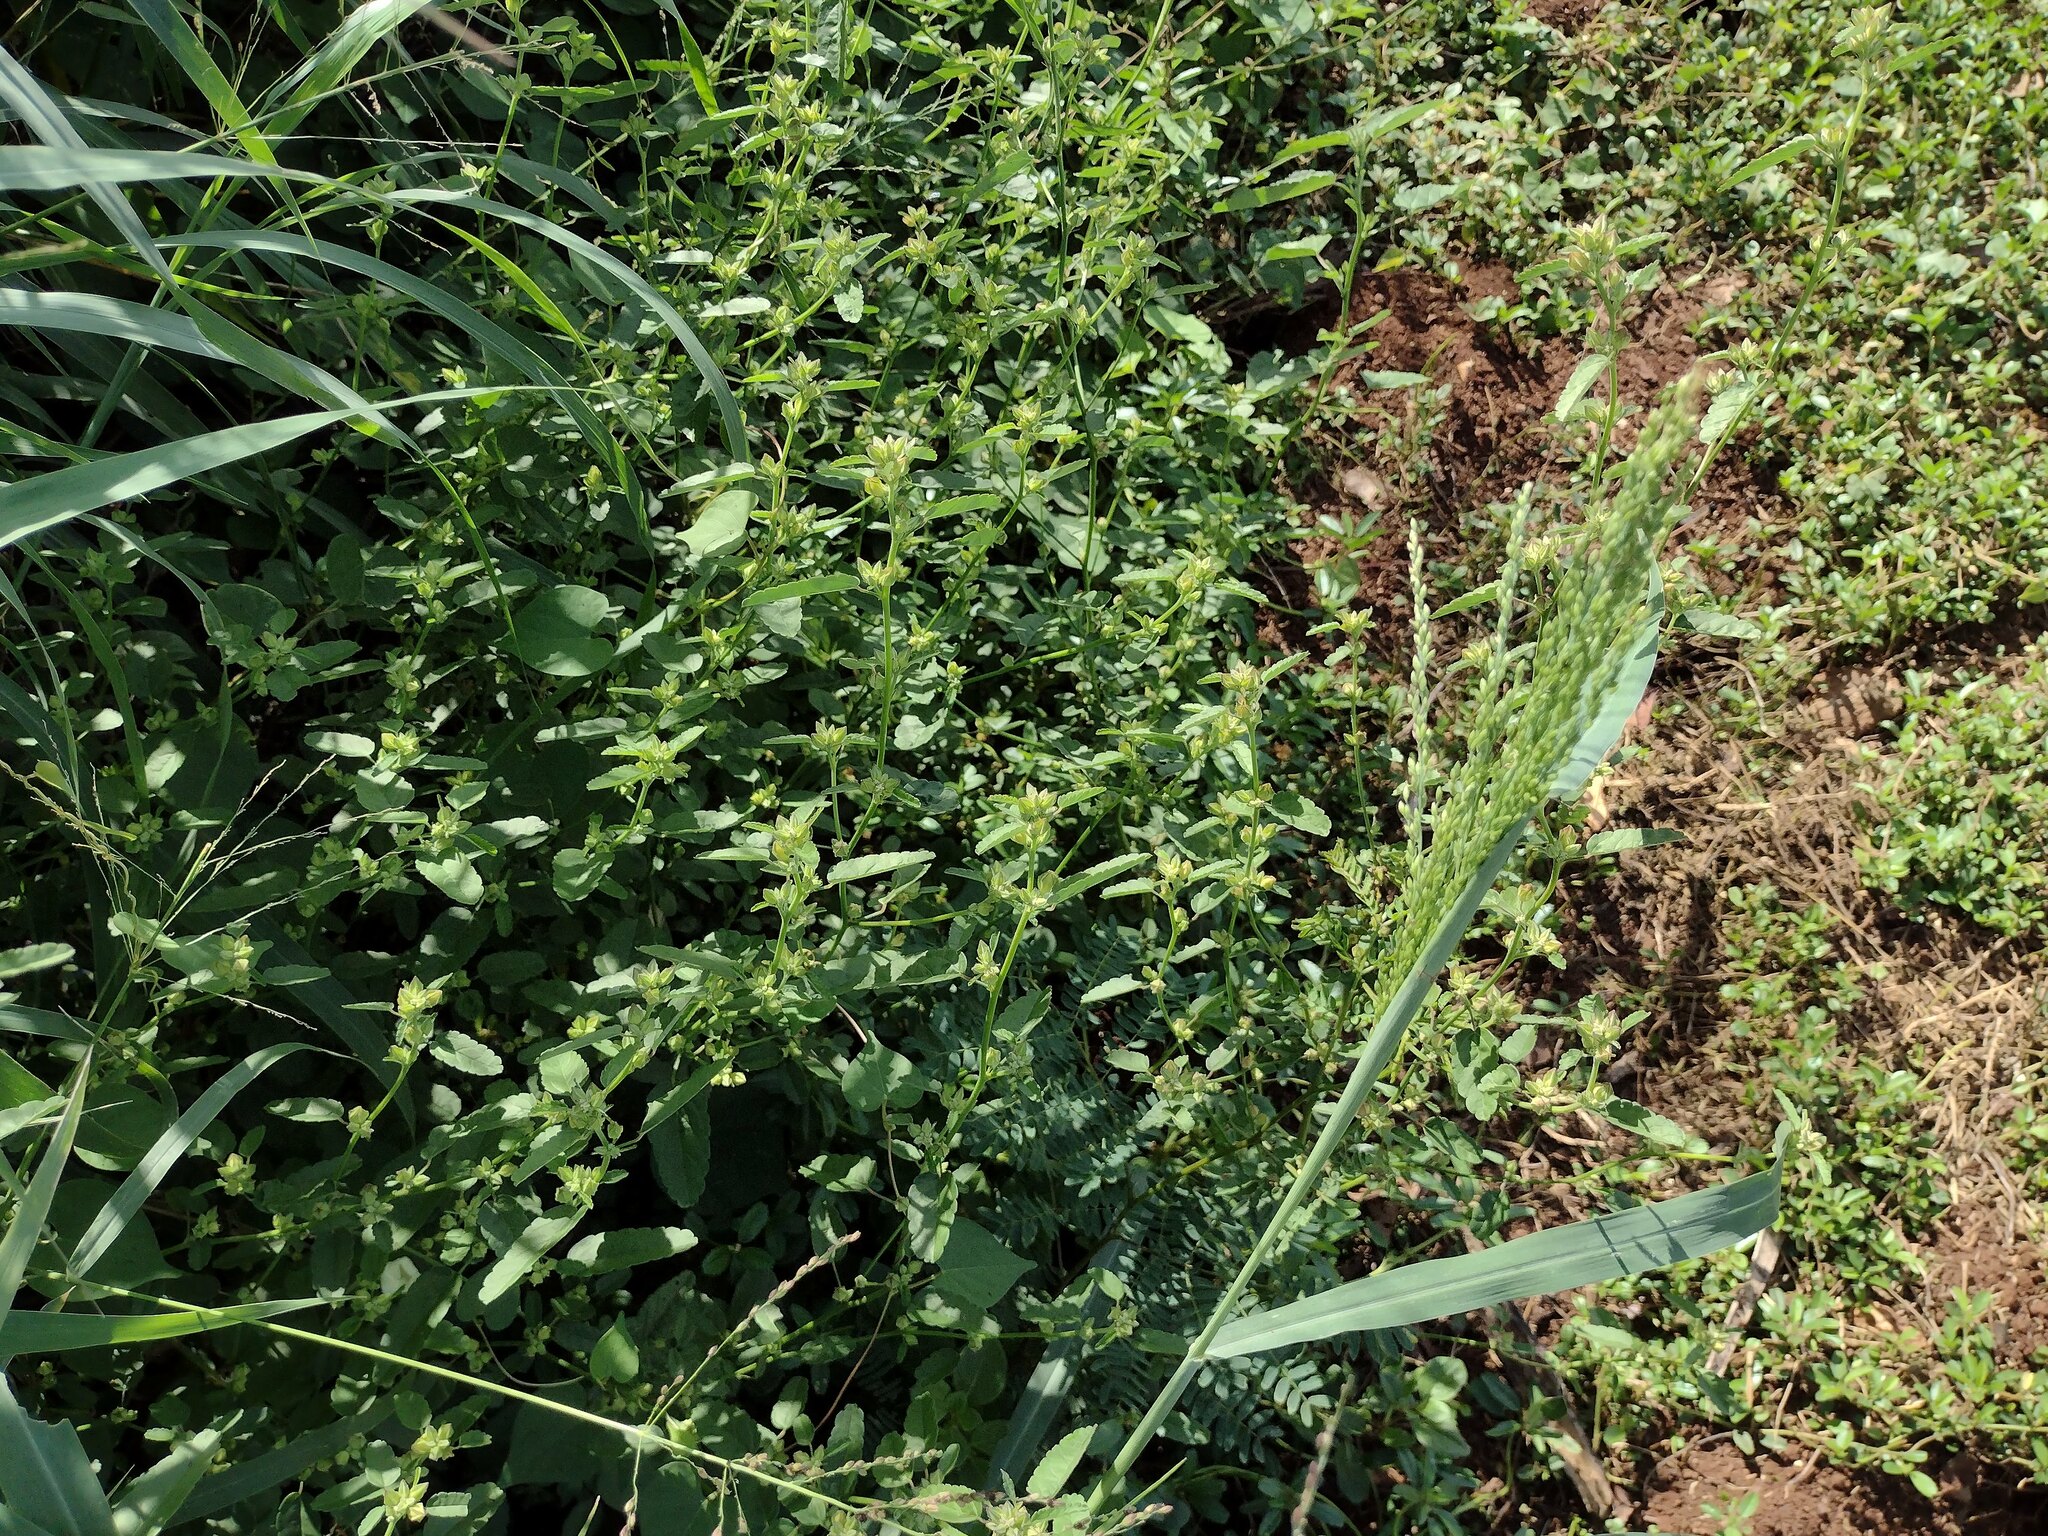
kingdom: Plantae
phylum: Tracheophyta
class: Liliopsida
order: Poales
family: Poaceae
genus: Megathyrsus
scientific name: Megathyrsus maximus
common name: Guineagrass
